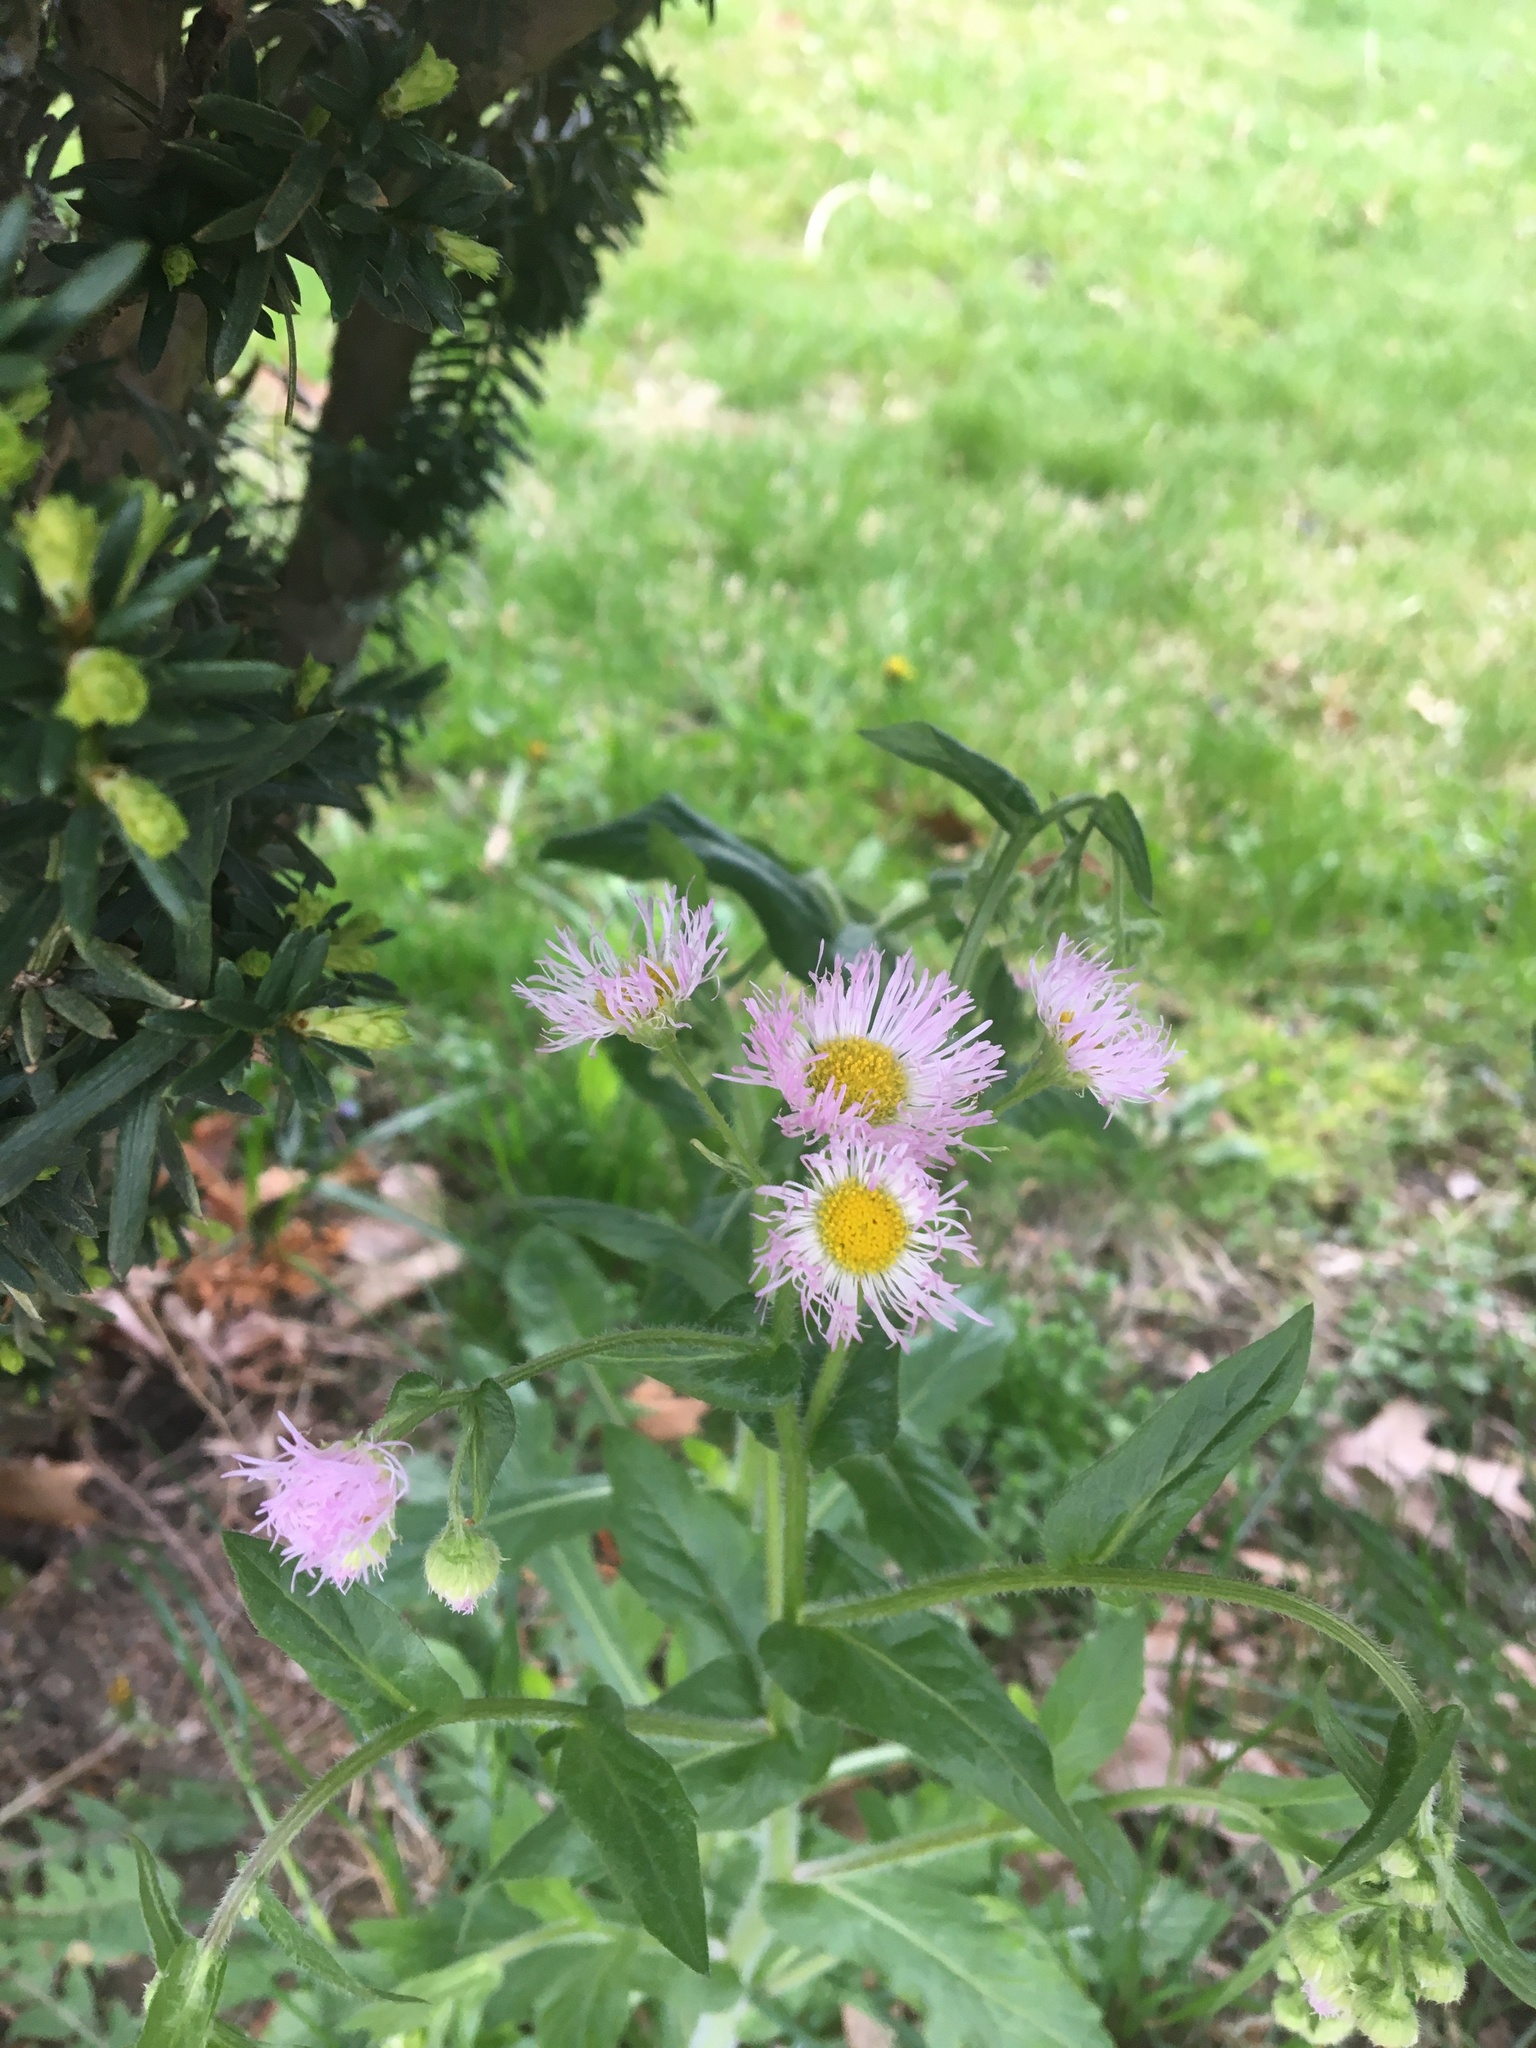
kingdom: Plantae
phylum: Tracheophyta
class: Magnoliopsida
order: Asterales
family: Asteraceae
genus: Erigeron
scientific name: Erigeron philadelphicus
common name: Robin's-plantain
